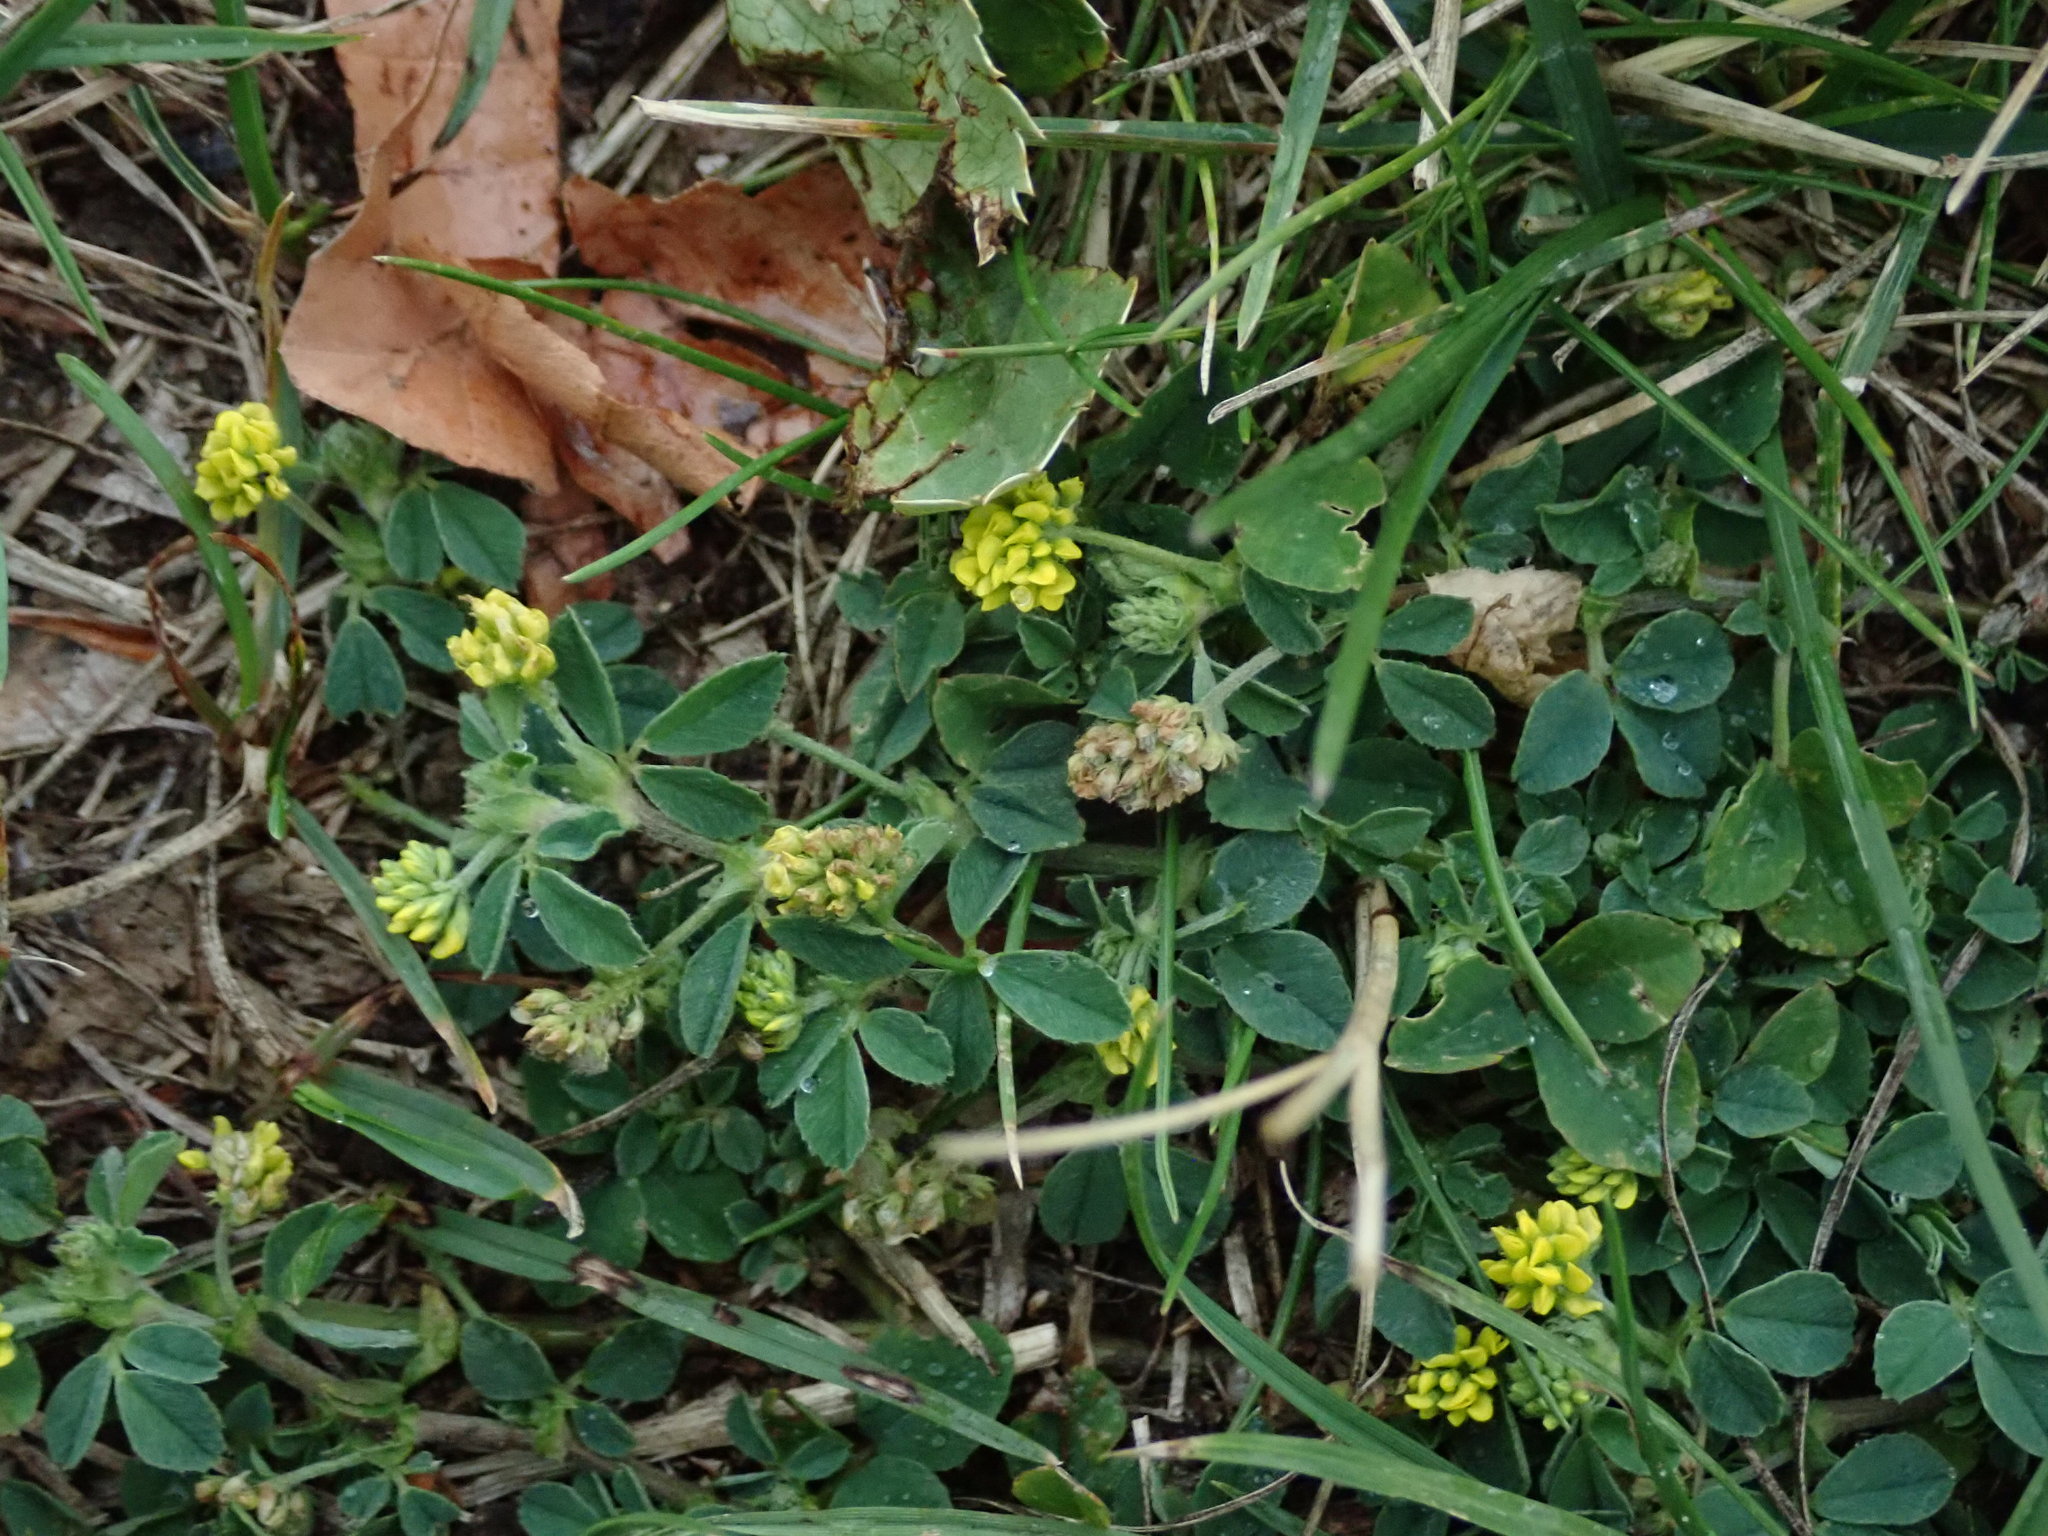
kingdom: Plantae
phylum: Tracheophyta
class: Magnoliopsida
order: Fabales
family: Fabaceae
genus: Medicago
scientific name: Medicago lupulina
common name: Black medick
